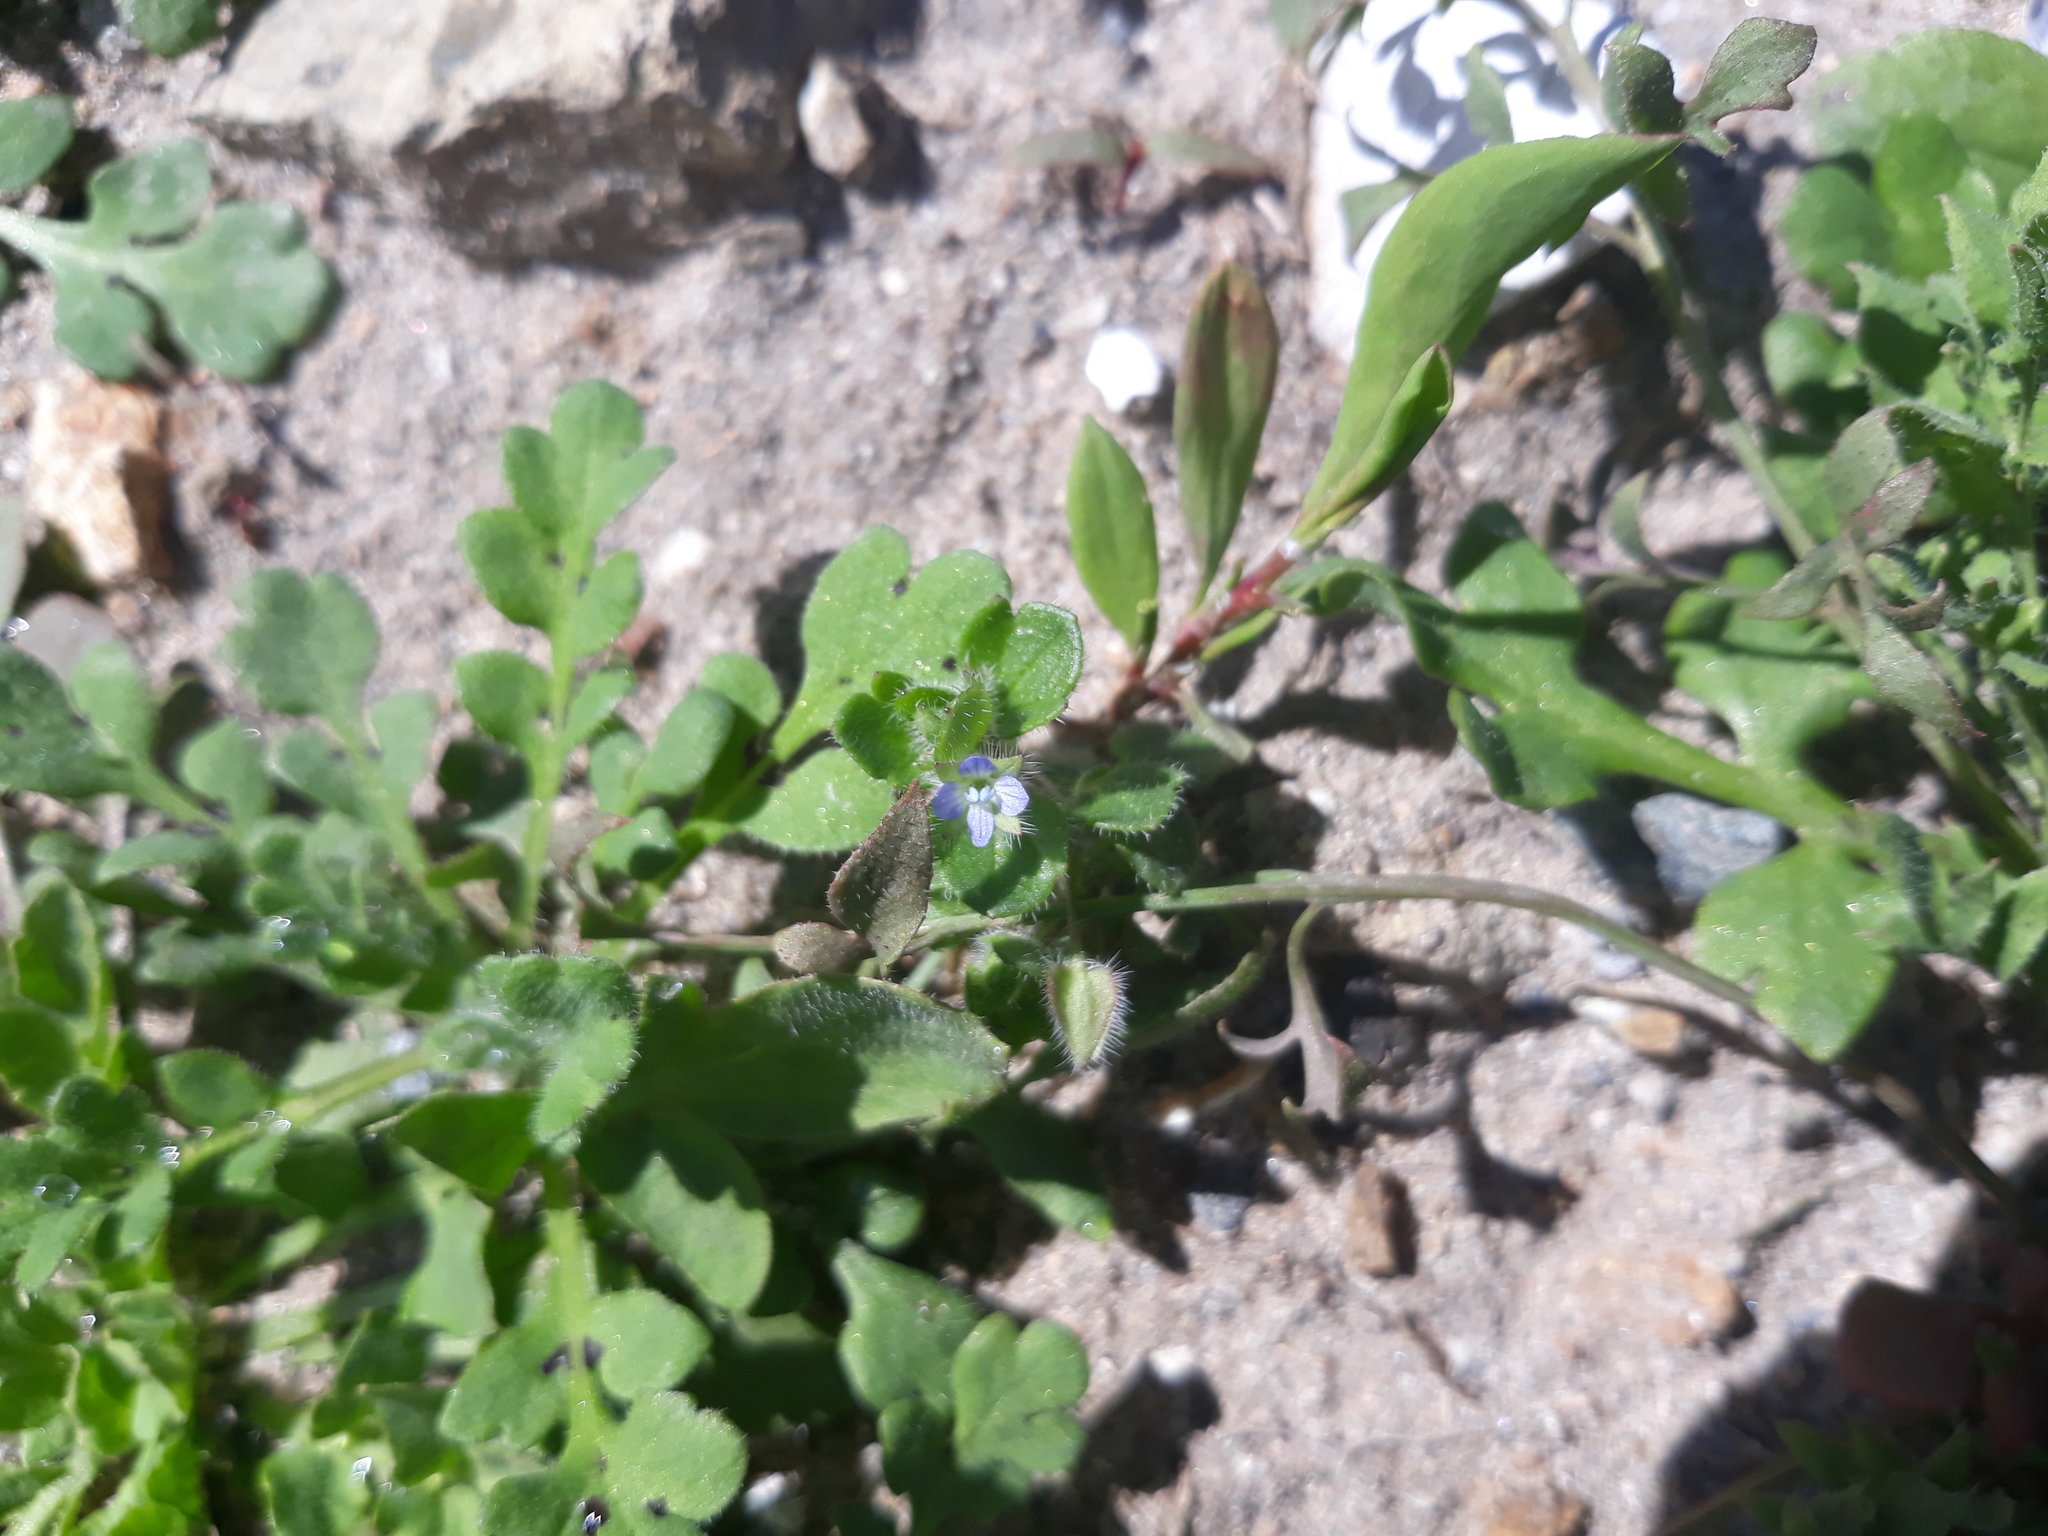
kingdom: Plantae
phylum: Tracheophyta
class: Magnoliopsida
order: Lamiales
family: Plantaginaceae
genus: Veronica
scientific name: Veronica hederifolia
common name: Ivy-leaved speedwell
